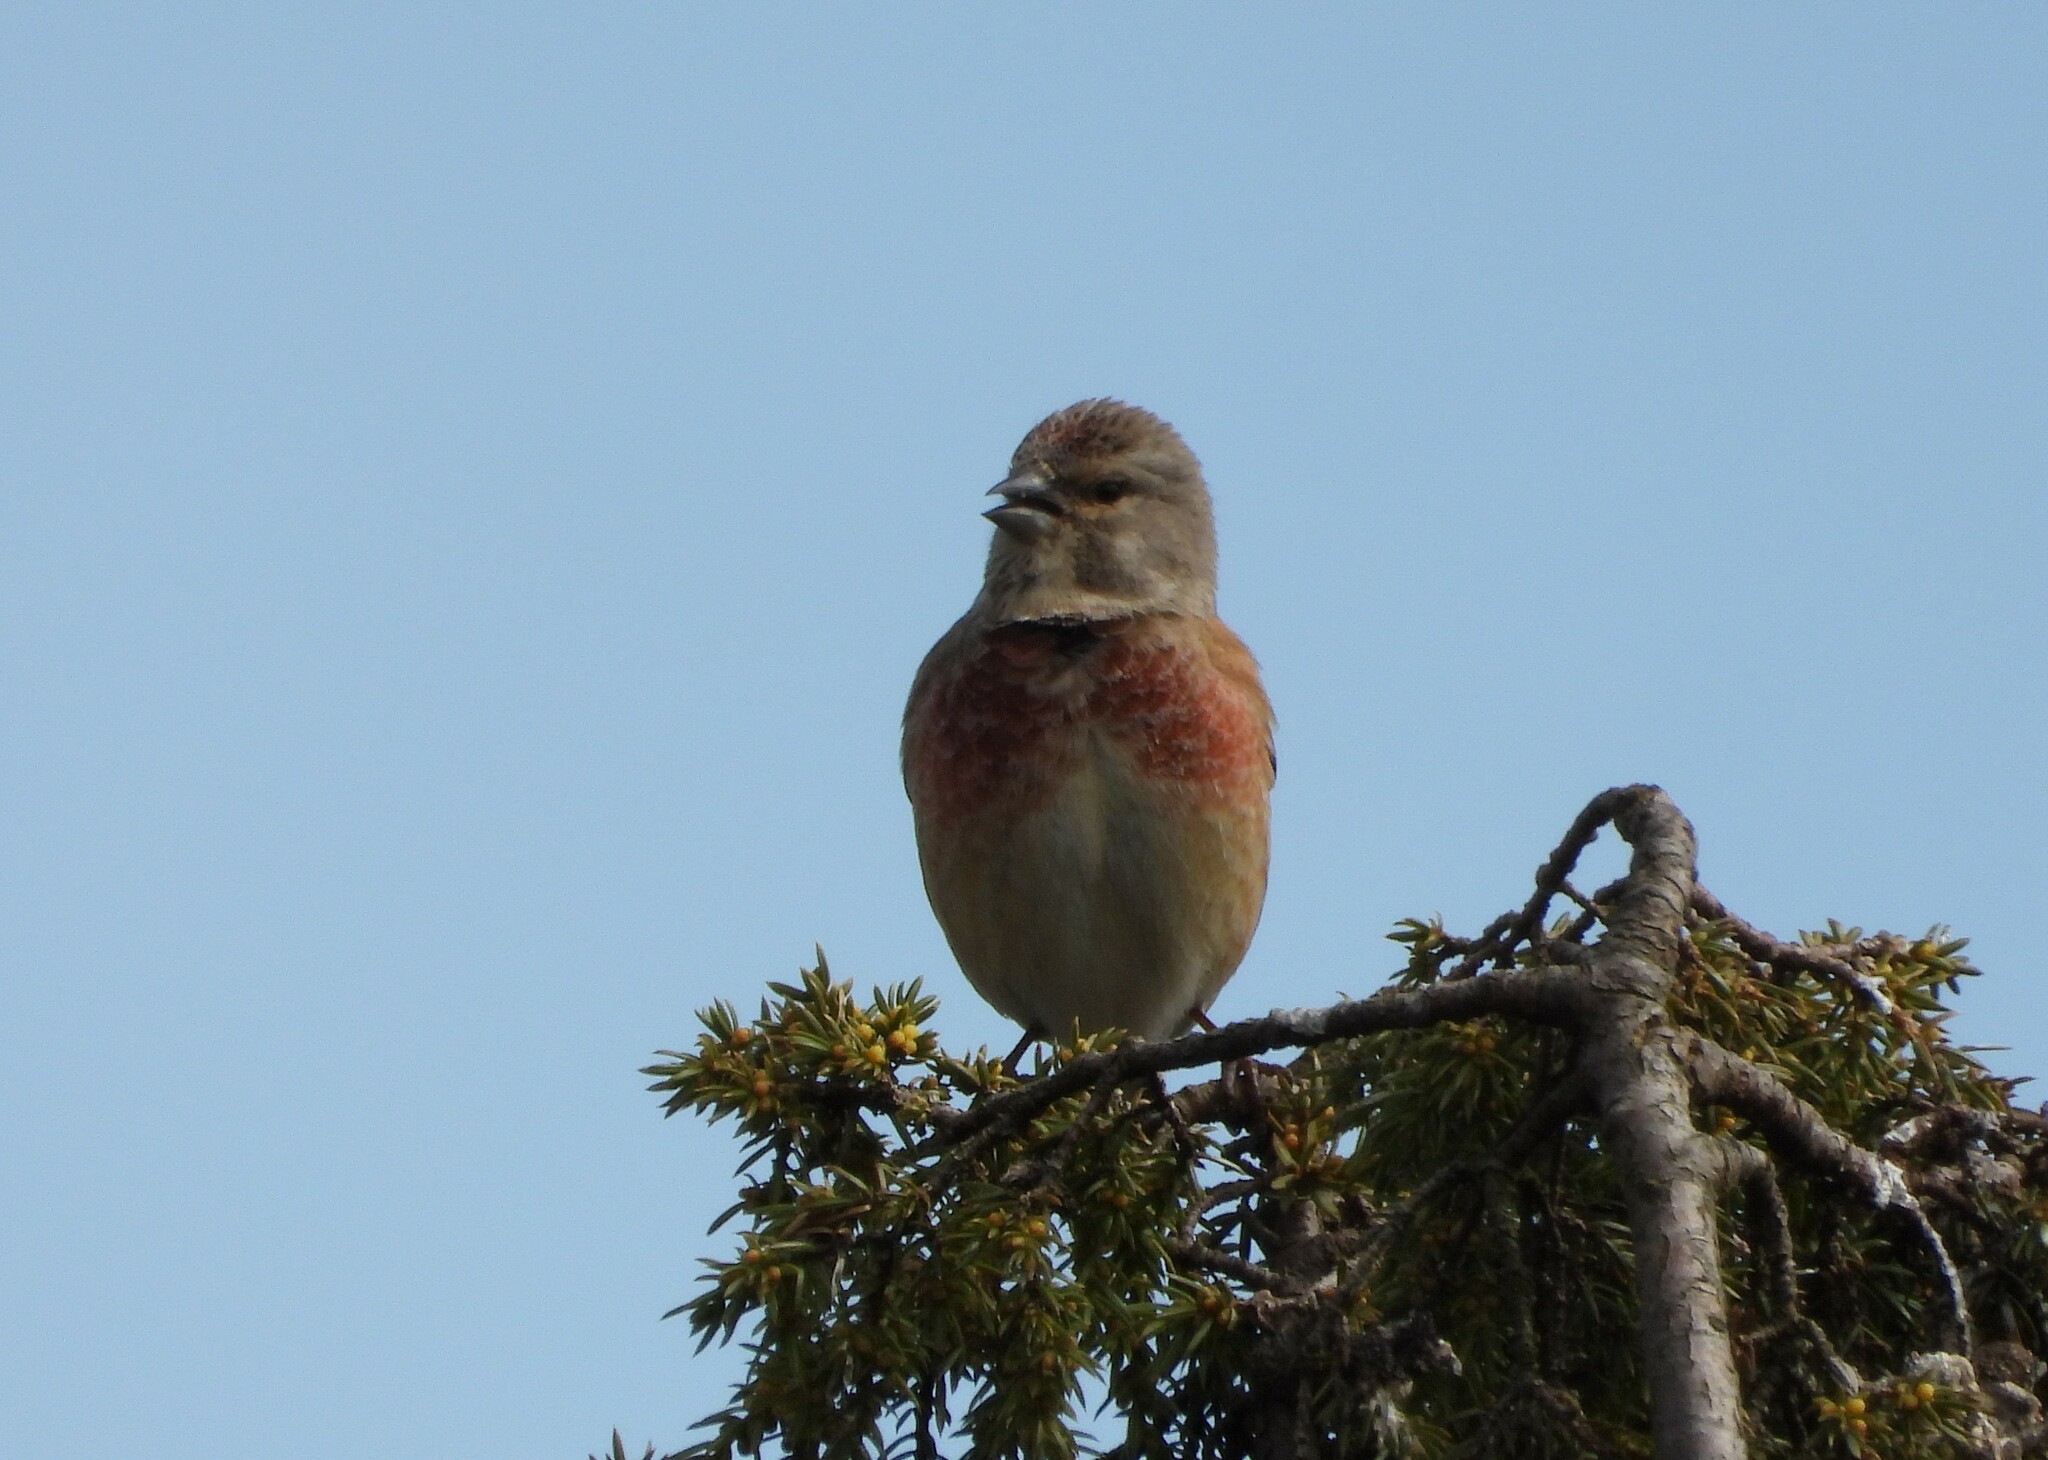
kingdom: Animalia
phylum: Chordata
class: Aves
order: Passeriformes
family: Fringillidae
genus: Linaria
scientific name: Linaria cannabina
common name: Common linnet
